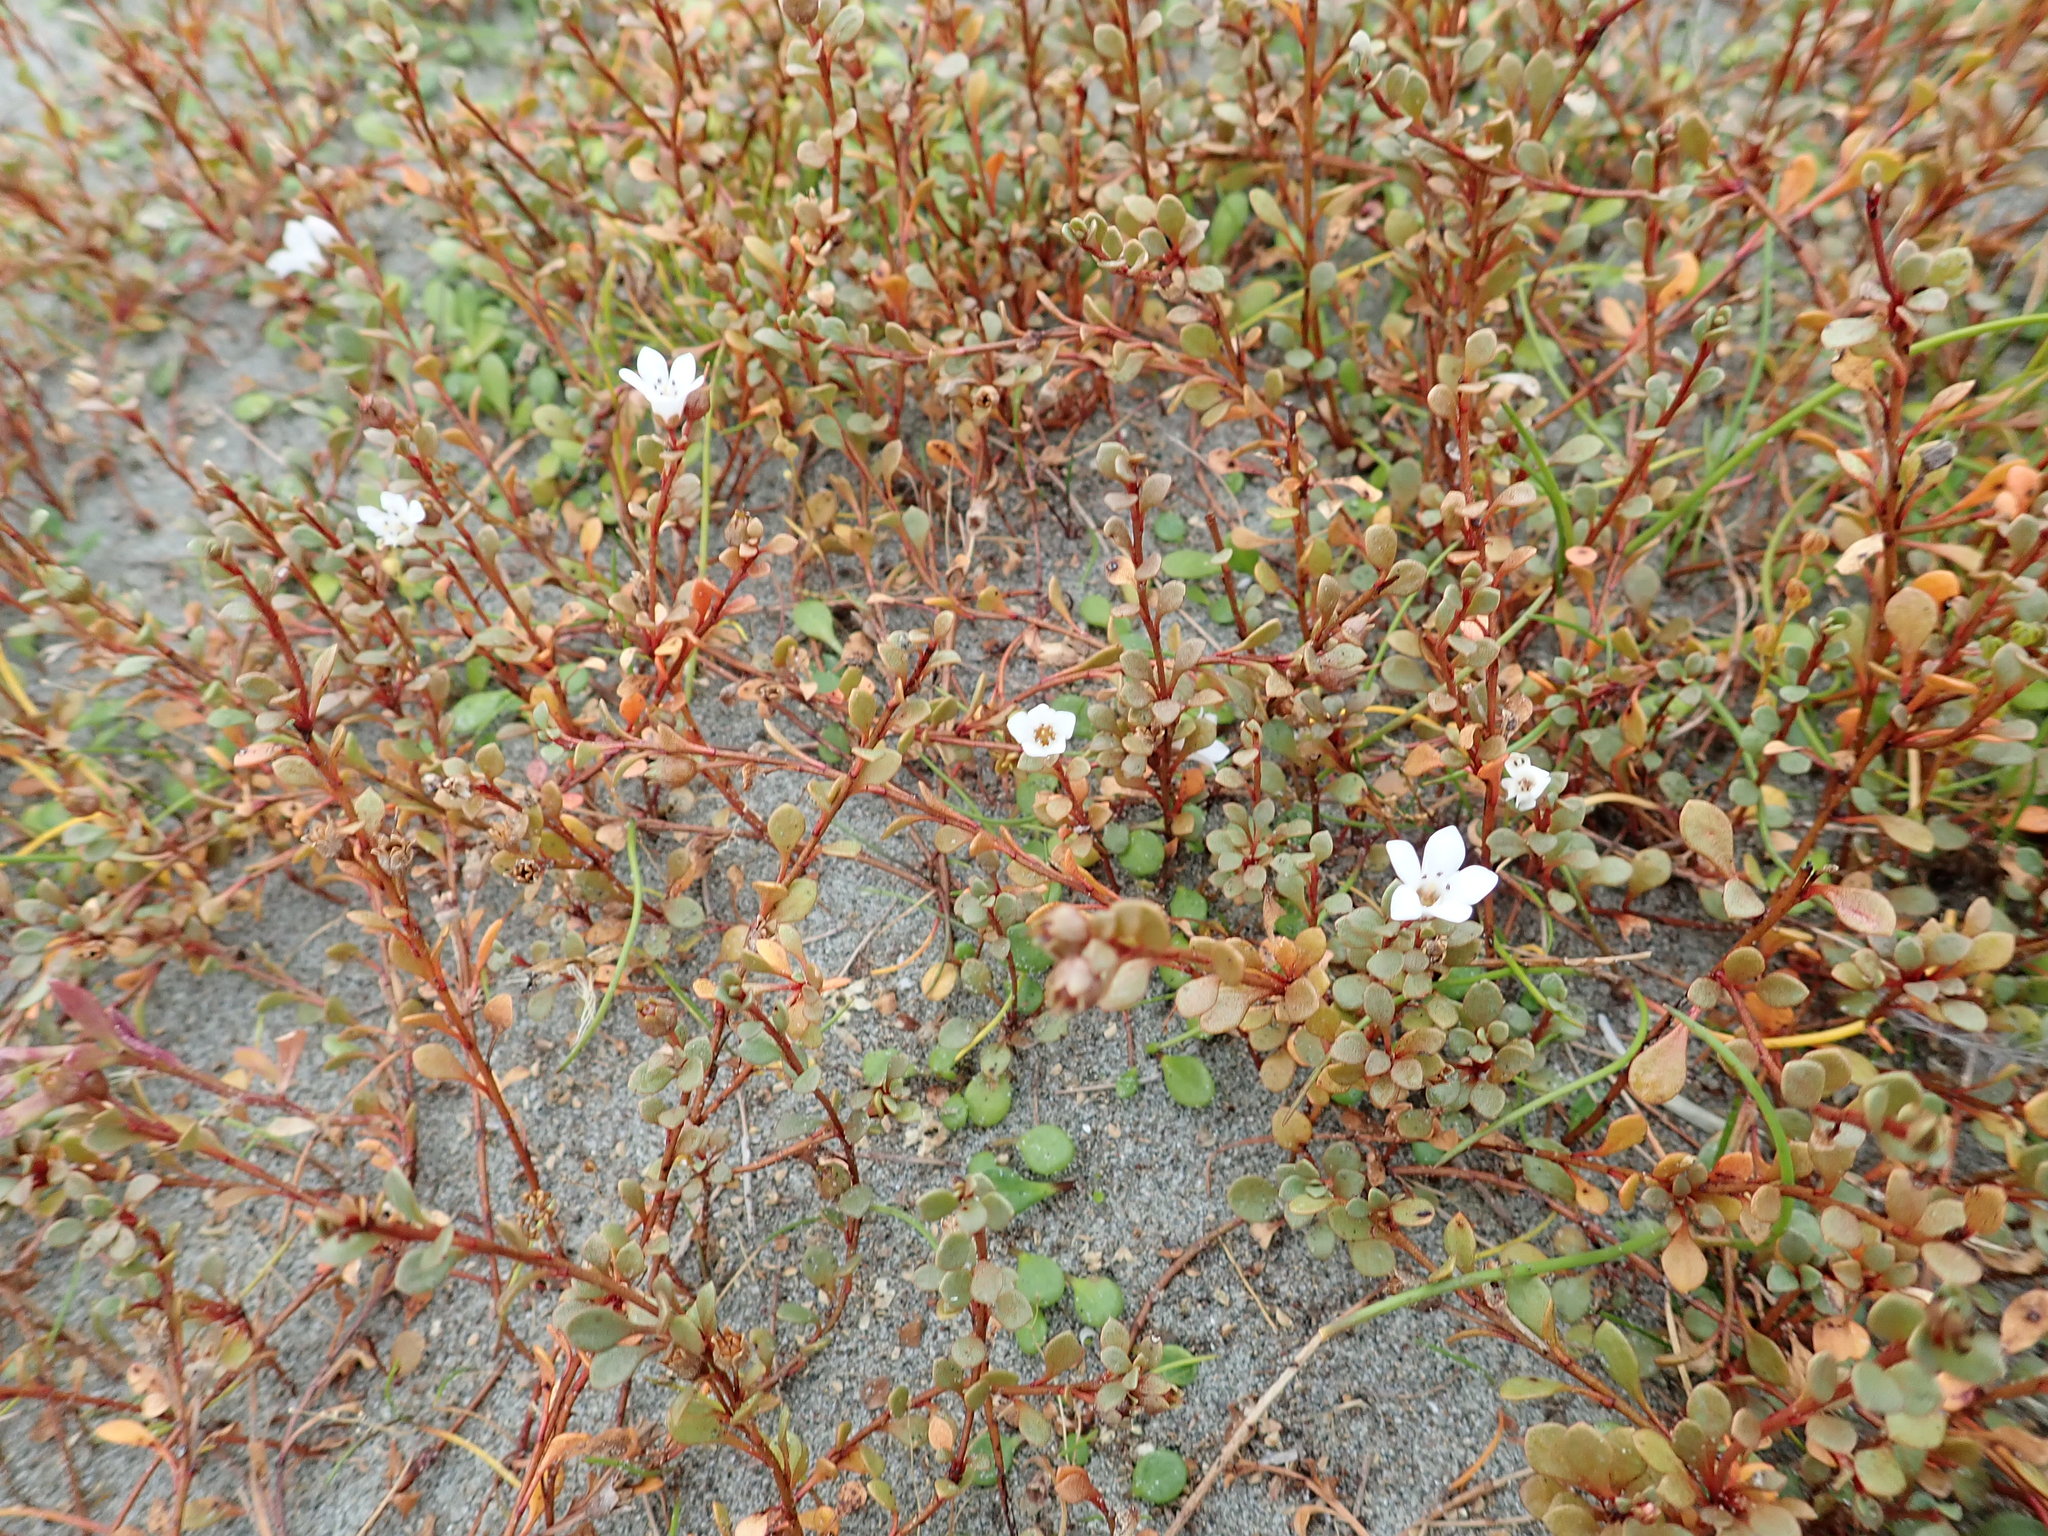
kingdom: Plantae
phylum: Tracheophyta
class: Magnoliopsida
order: Ericales
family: Primulaceae
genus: Samolus
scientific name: Samolus repens
